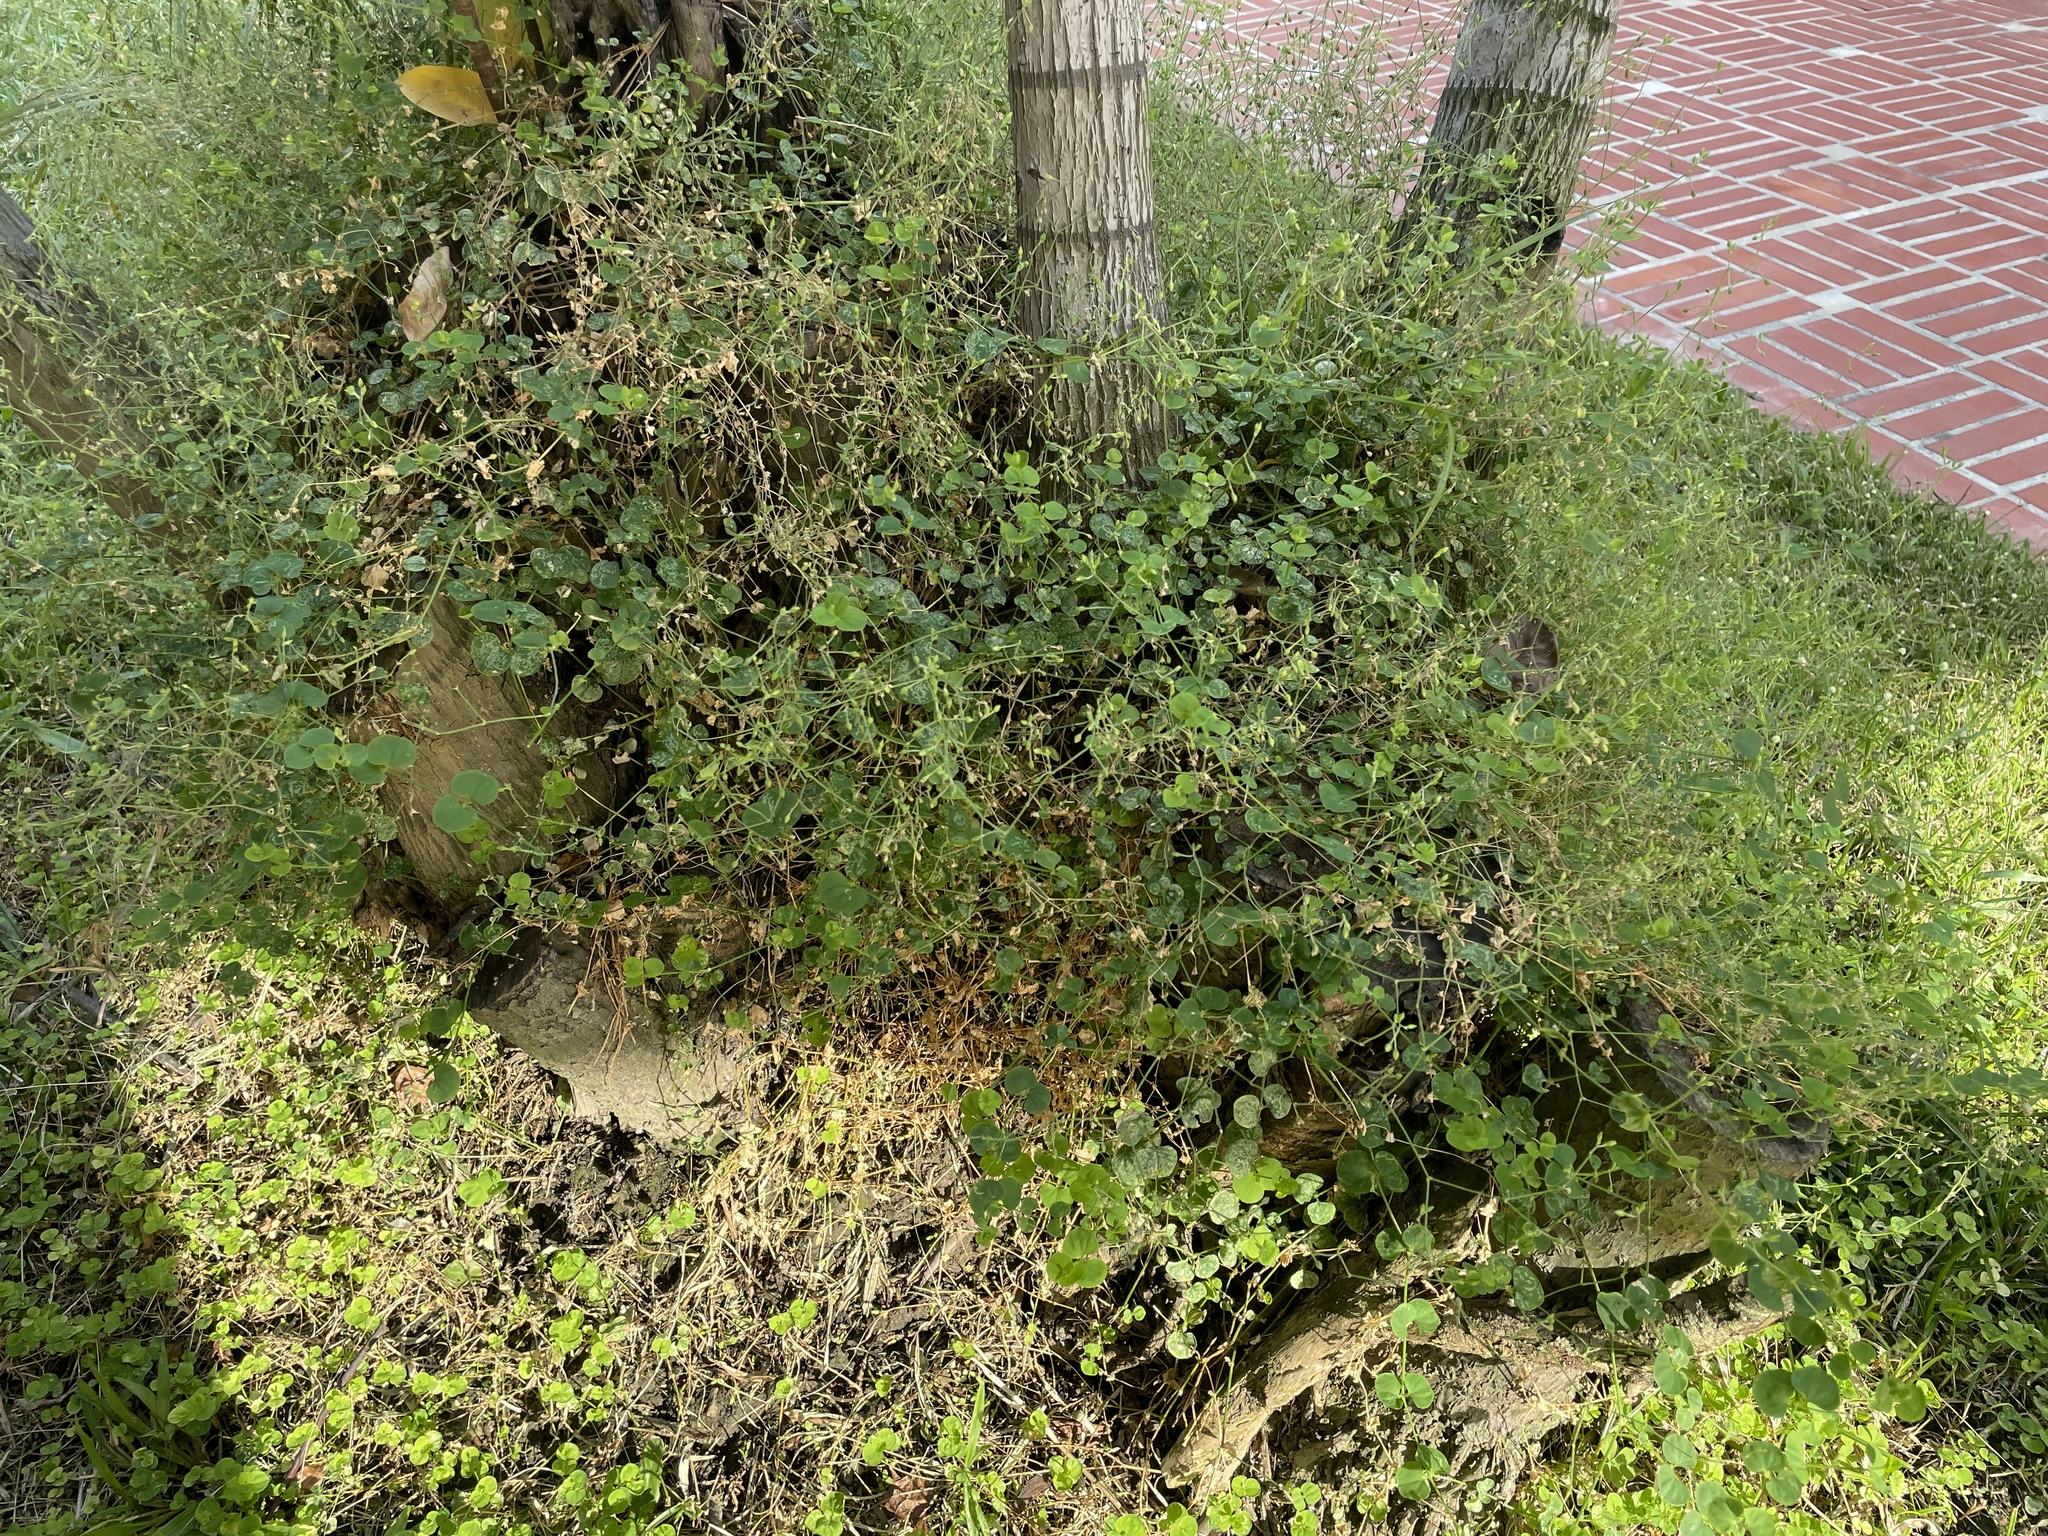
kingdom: Plantae
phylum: Tracheophyta
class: Magnoliopsida
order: Caryophyllales
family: Caryophyllaceae
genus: Drymaria
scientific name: Drymaria cordata
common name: Whitesnow
